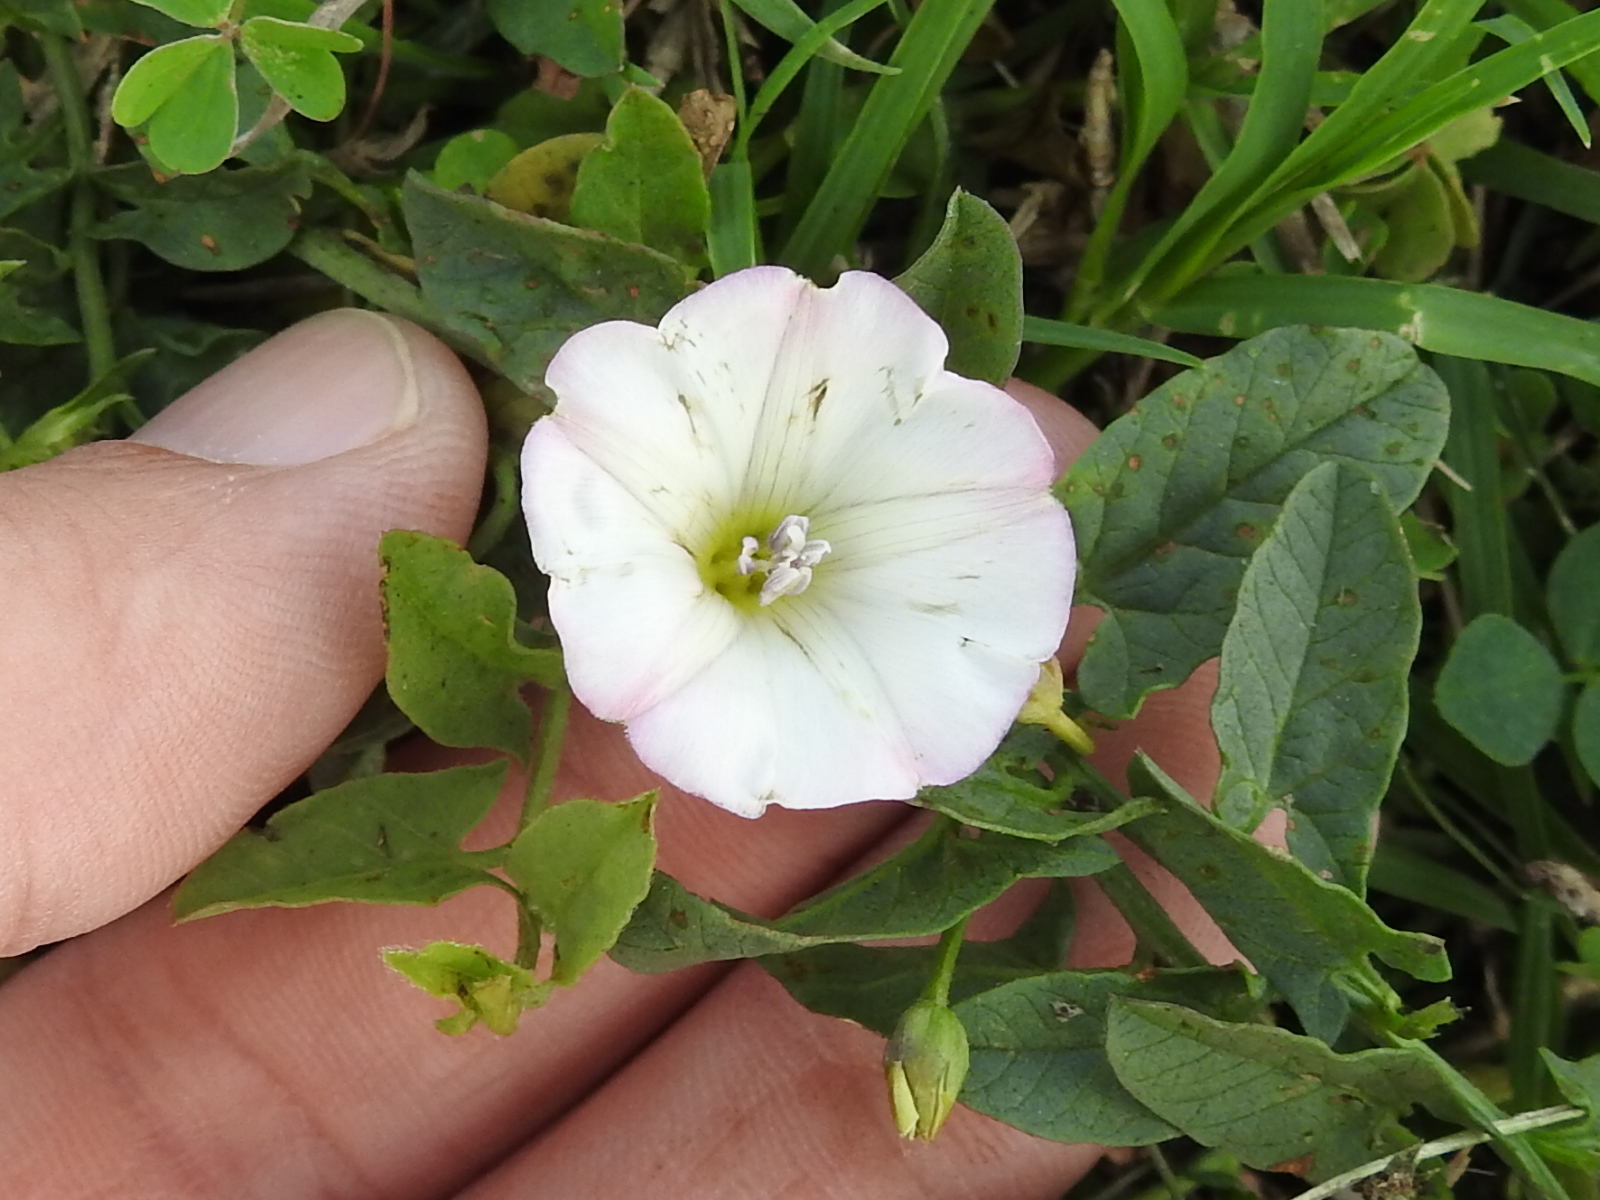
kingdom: Plantae
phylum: Tracheophyta
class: Magnoliopsida
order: Solanales
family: Convolvulaceae
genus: Convolvulus
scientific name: Convolvulus arvensis
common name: Field bindweed
